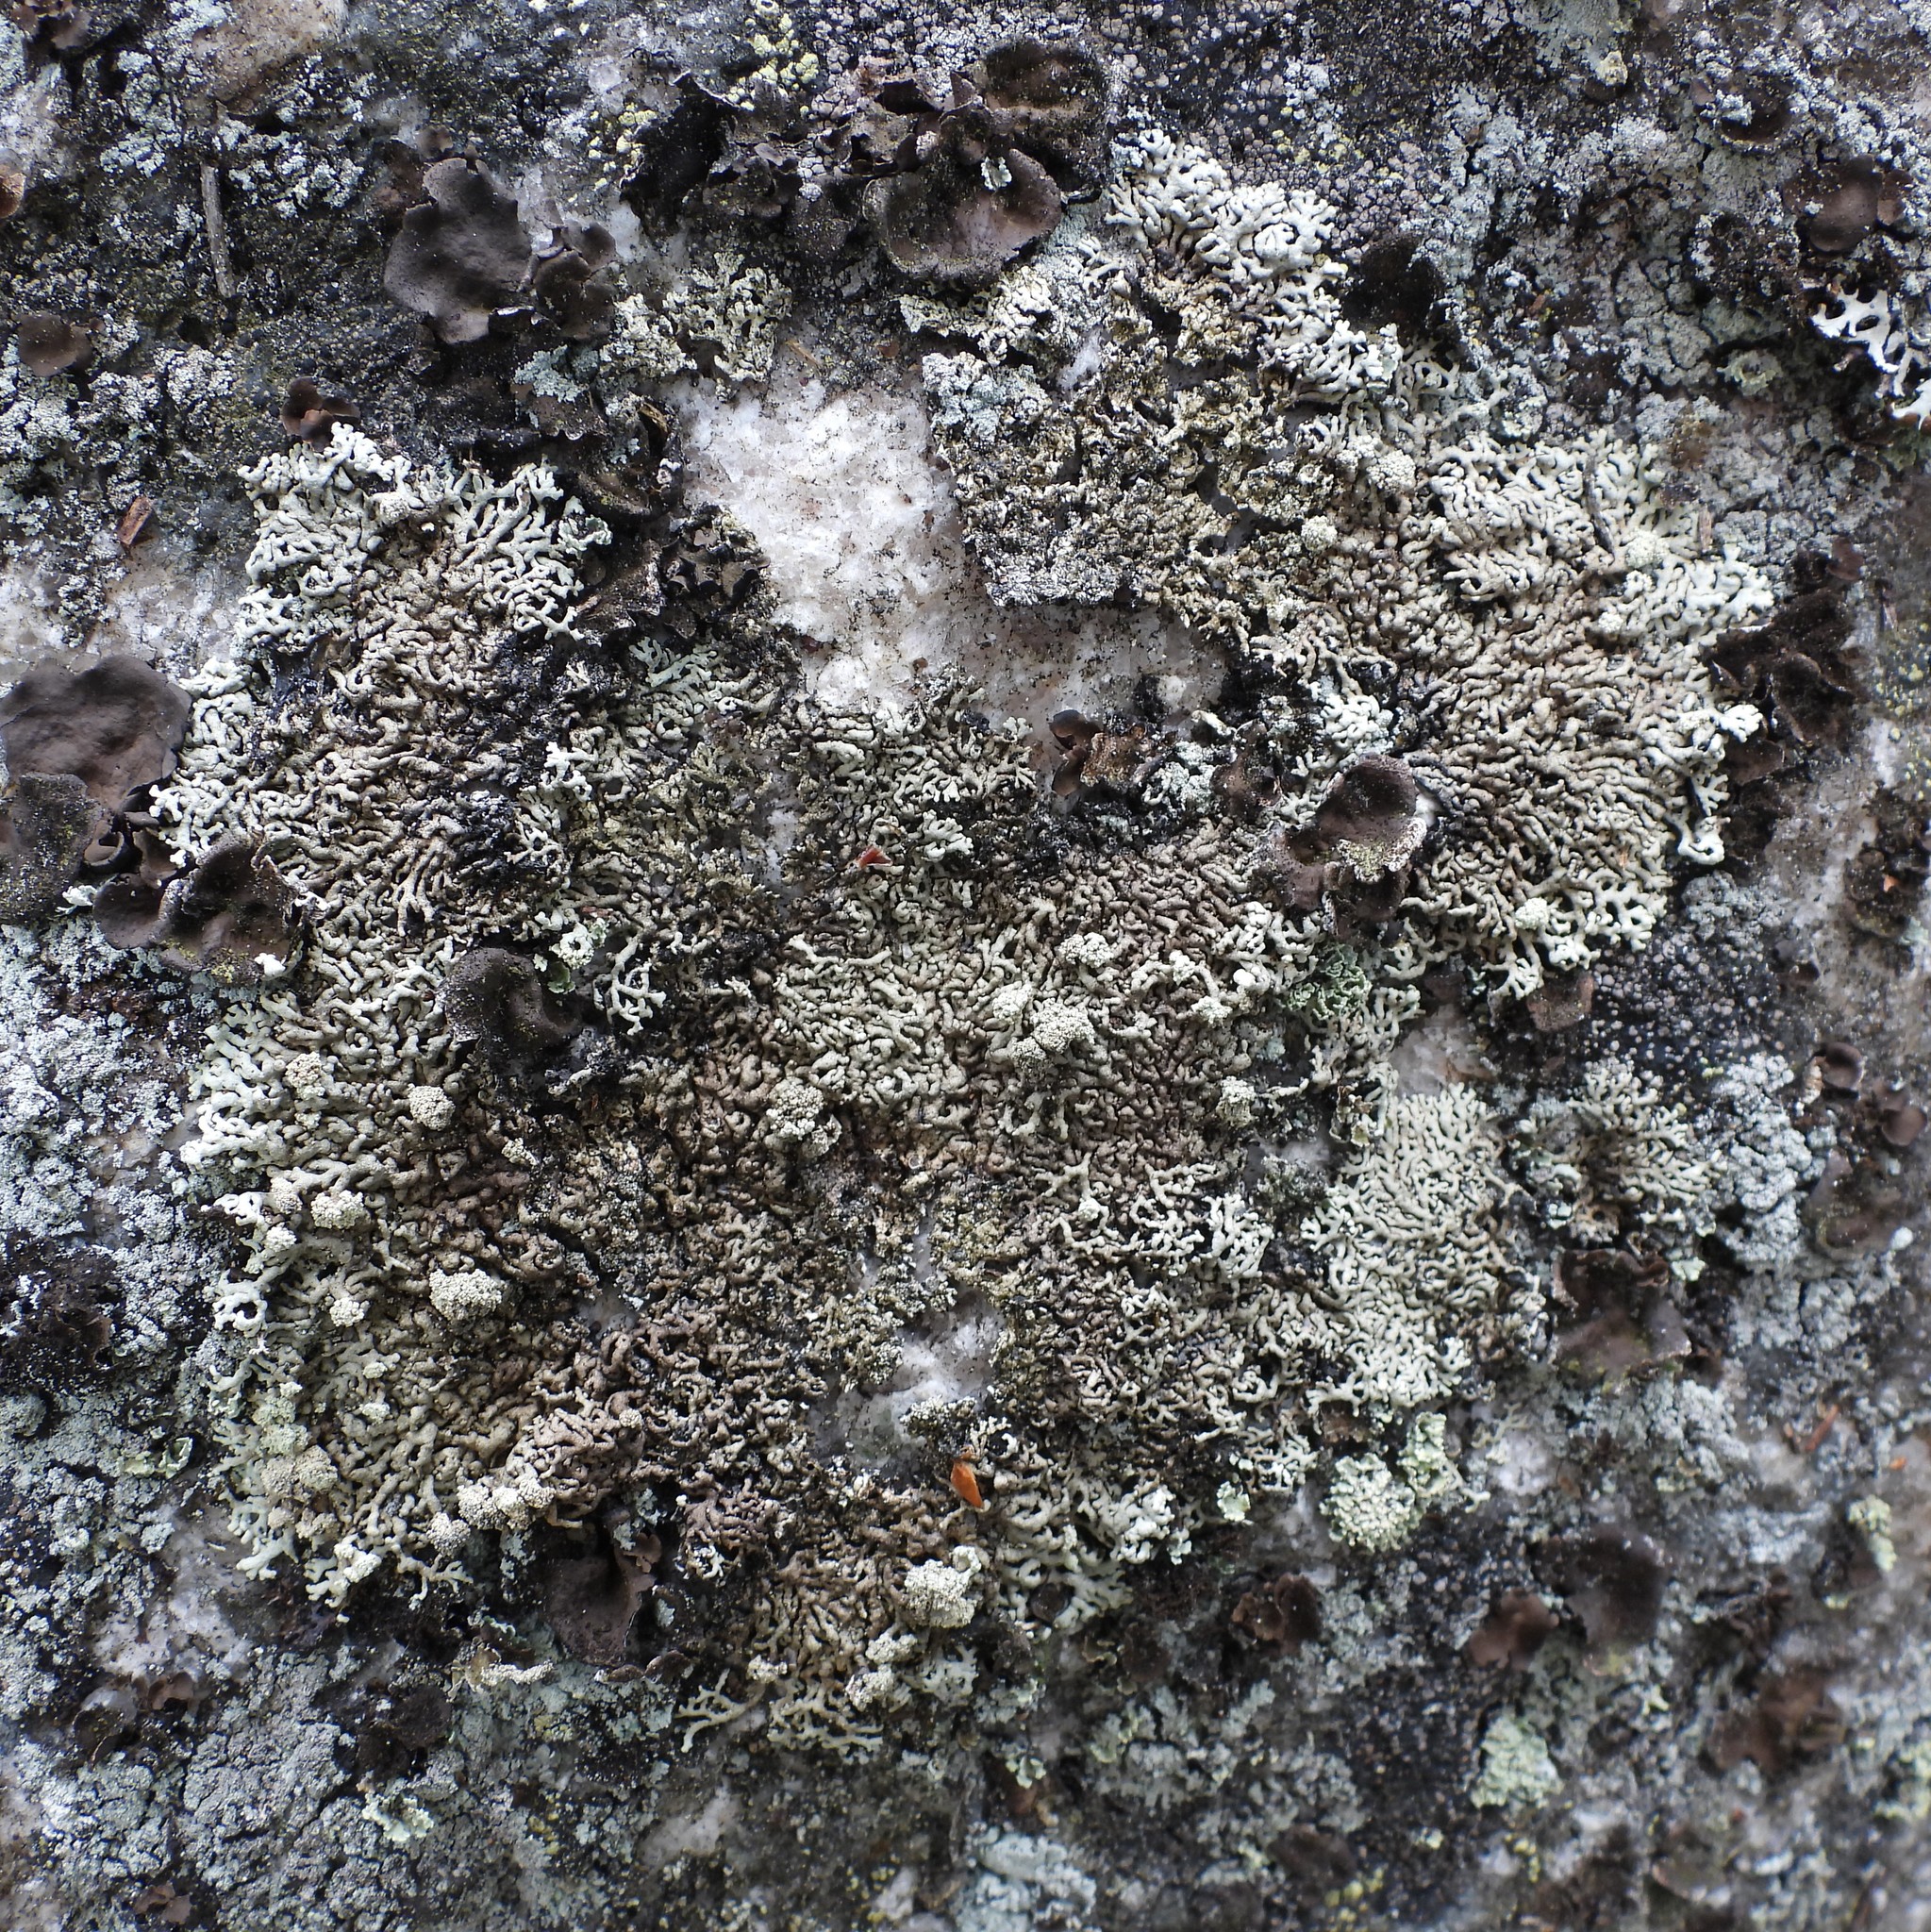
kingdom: Fungi
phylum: Ascomycota
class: Lecanoromycetes
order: Lecanorales
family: Parmeliaceae
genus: Arctoparmelia
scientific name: Arctoparmelia incurva
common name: Bent ring lichen
